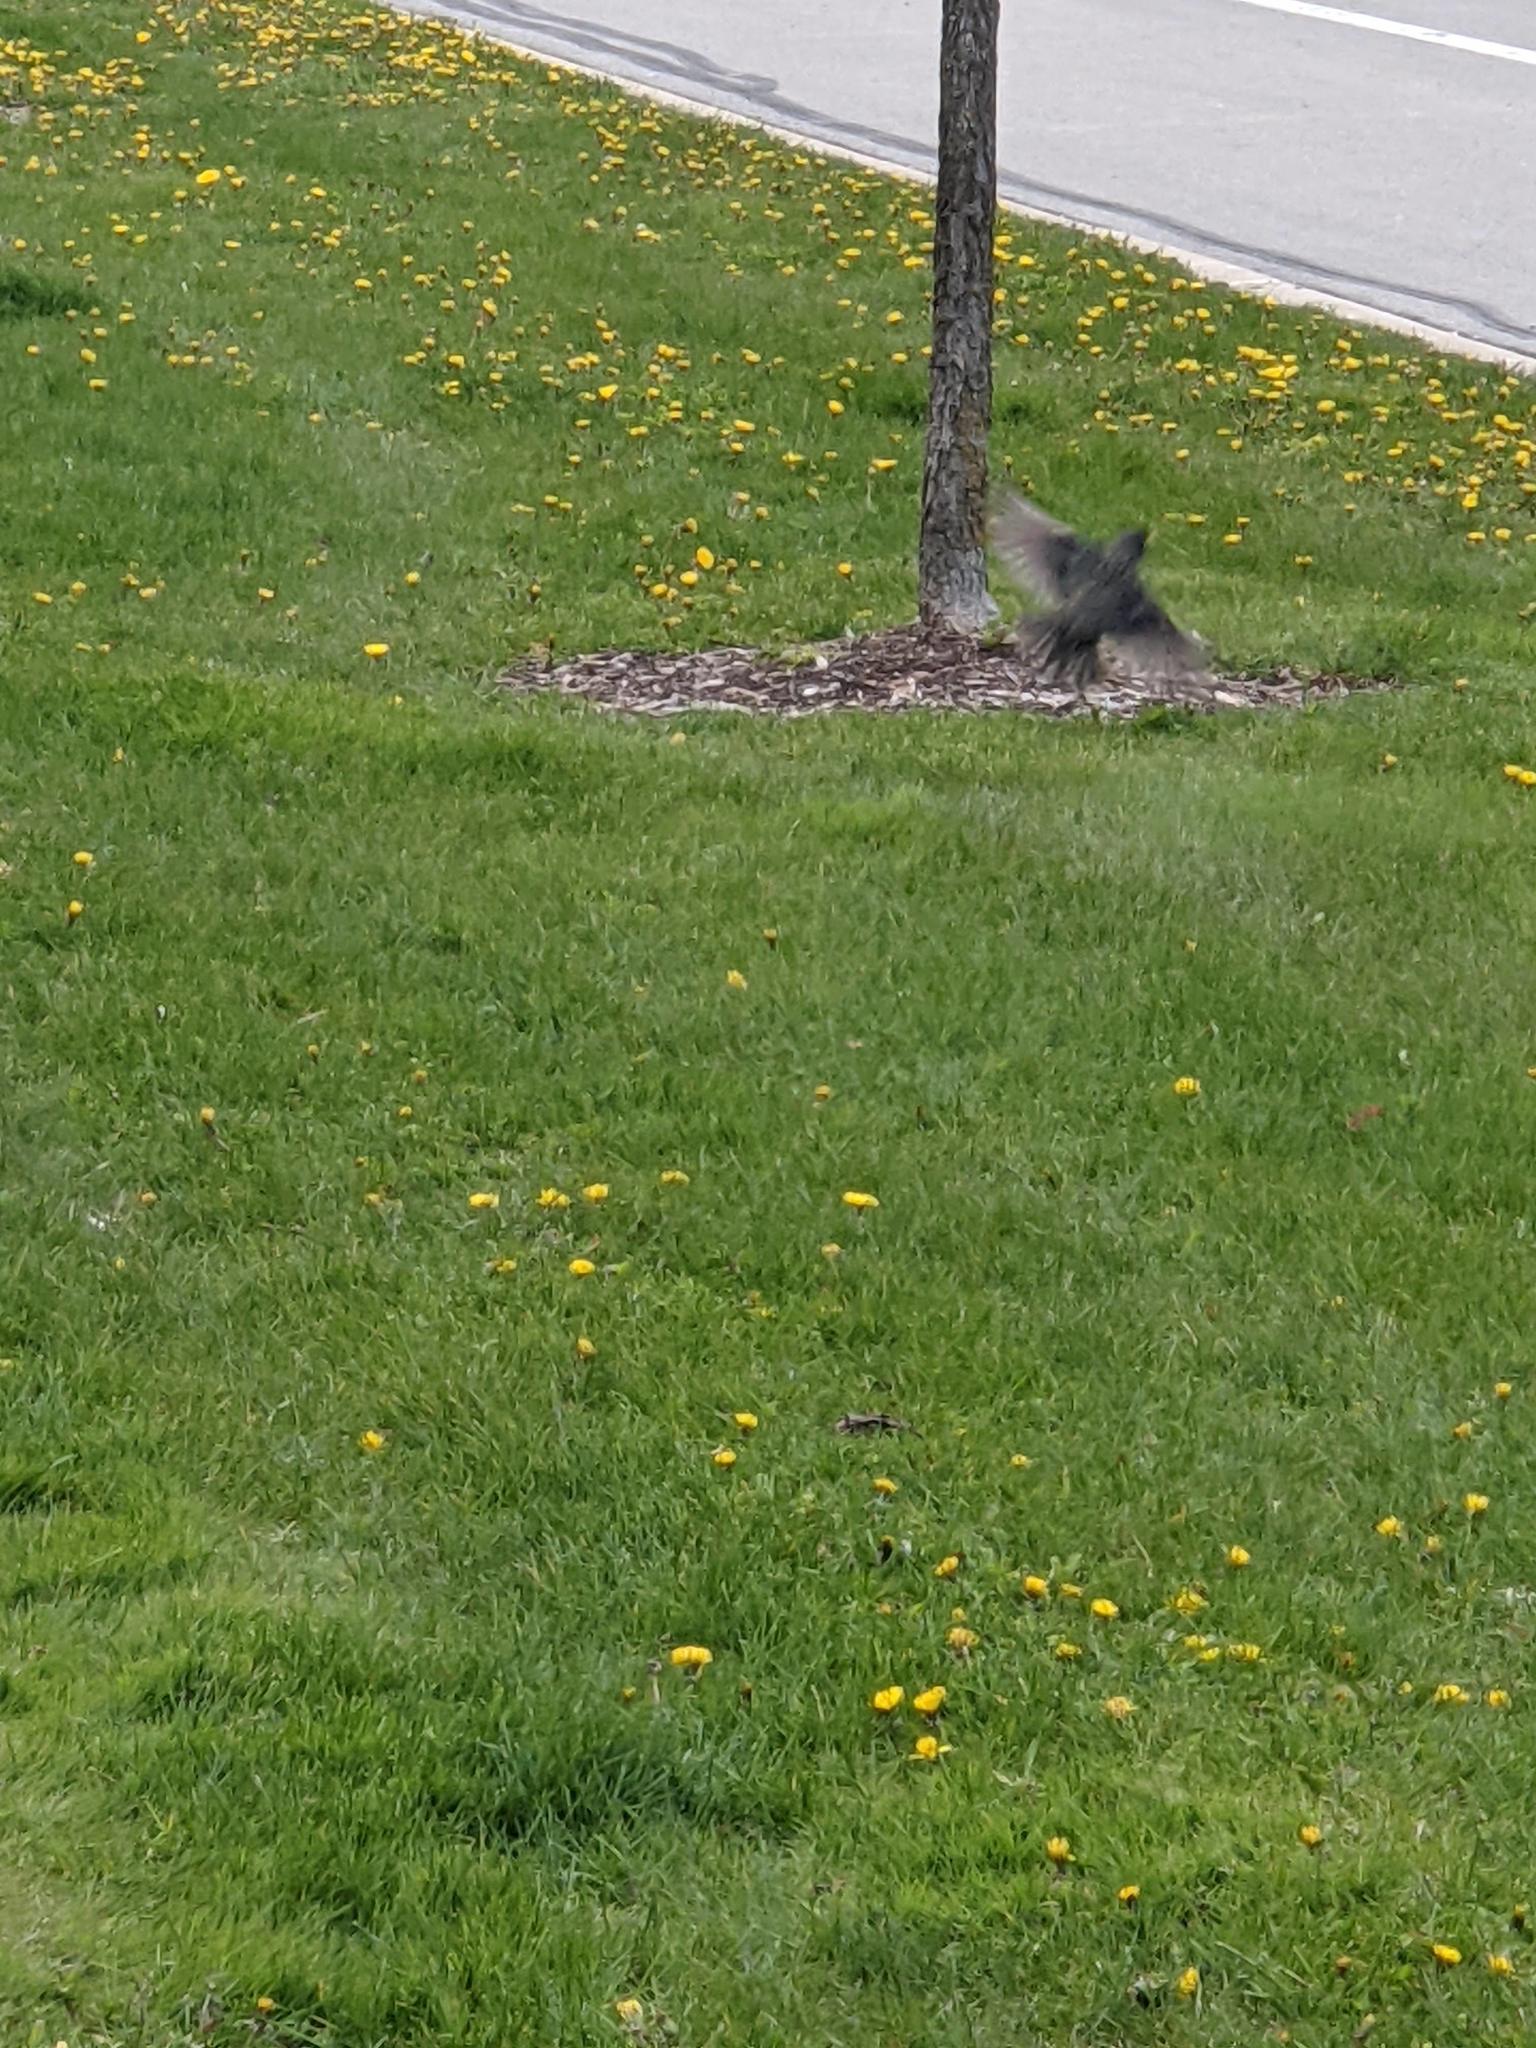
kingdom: Animalia
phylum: Chordata
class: Aves
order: Passeriformes
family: Sturnidae
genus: Sturnus
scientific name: Sturnus vulgaris
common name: Common starling
